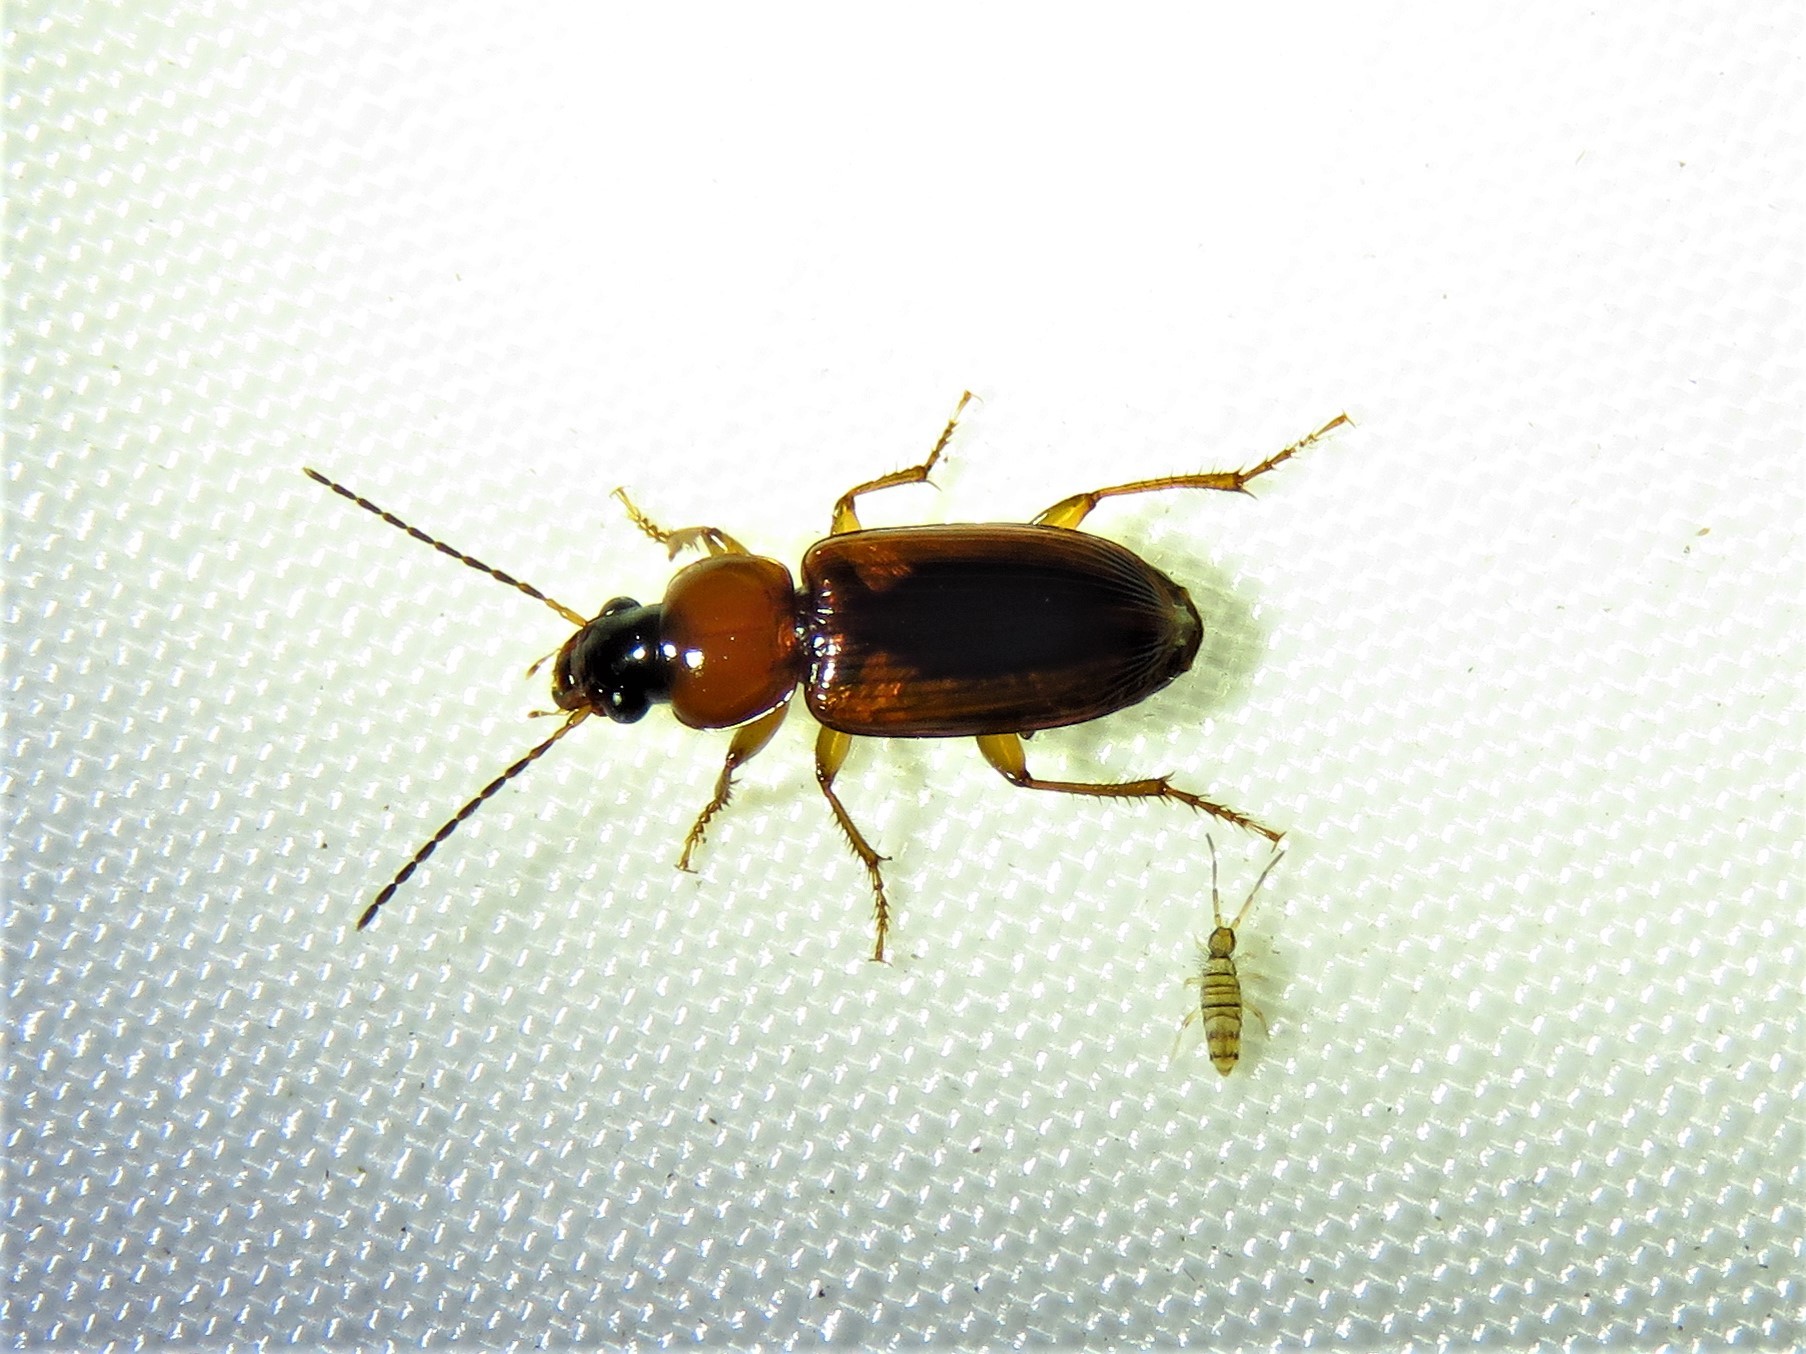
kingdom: Animalia
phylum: Arthropoda
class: Insecta
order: Coleoptera
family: Carabidae
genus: Stenolophus
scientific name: Stenolophus dissimilis
